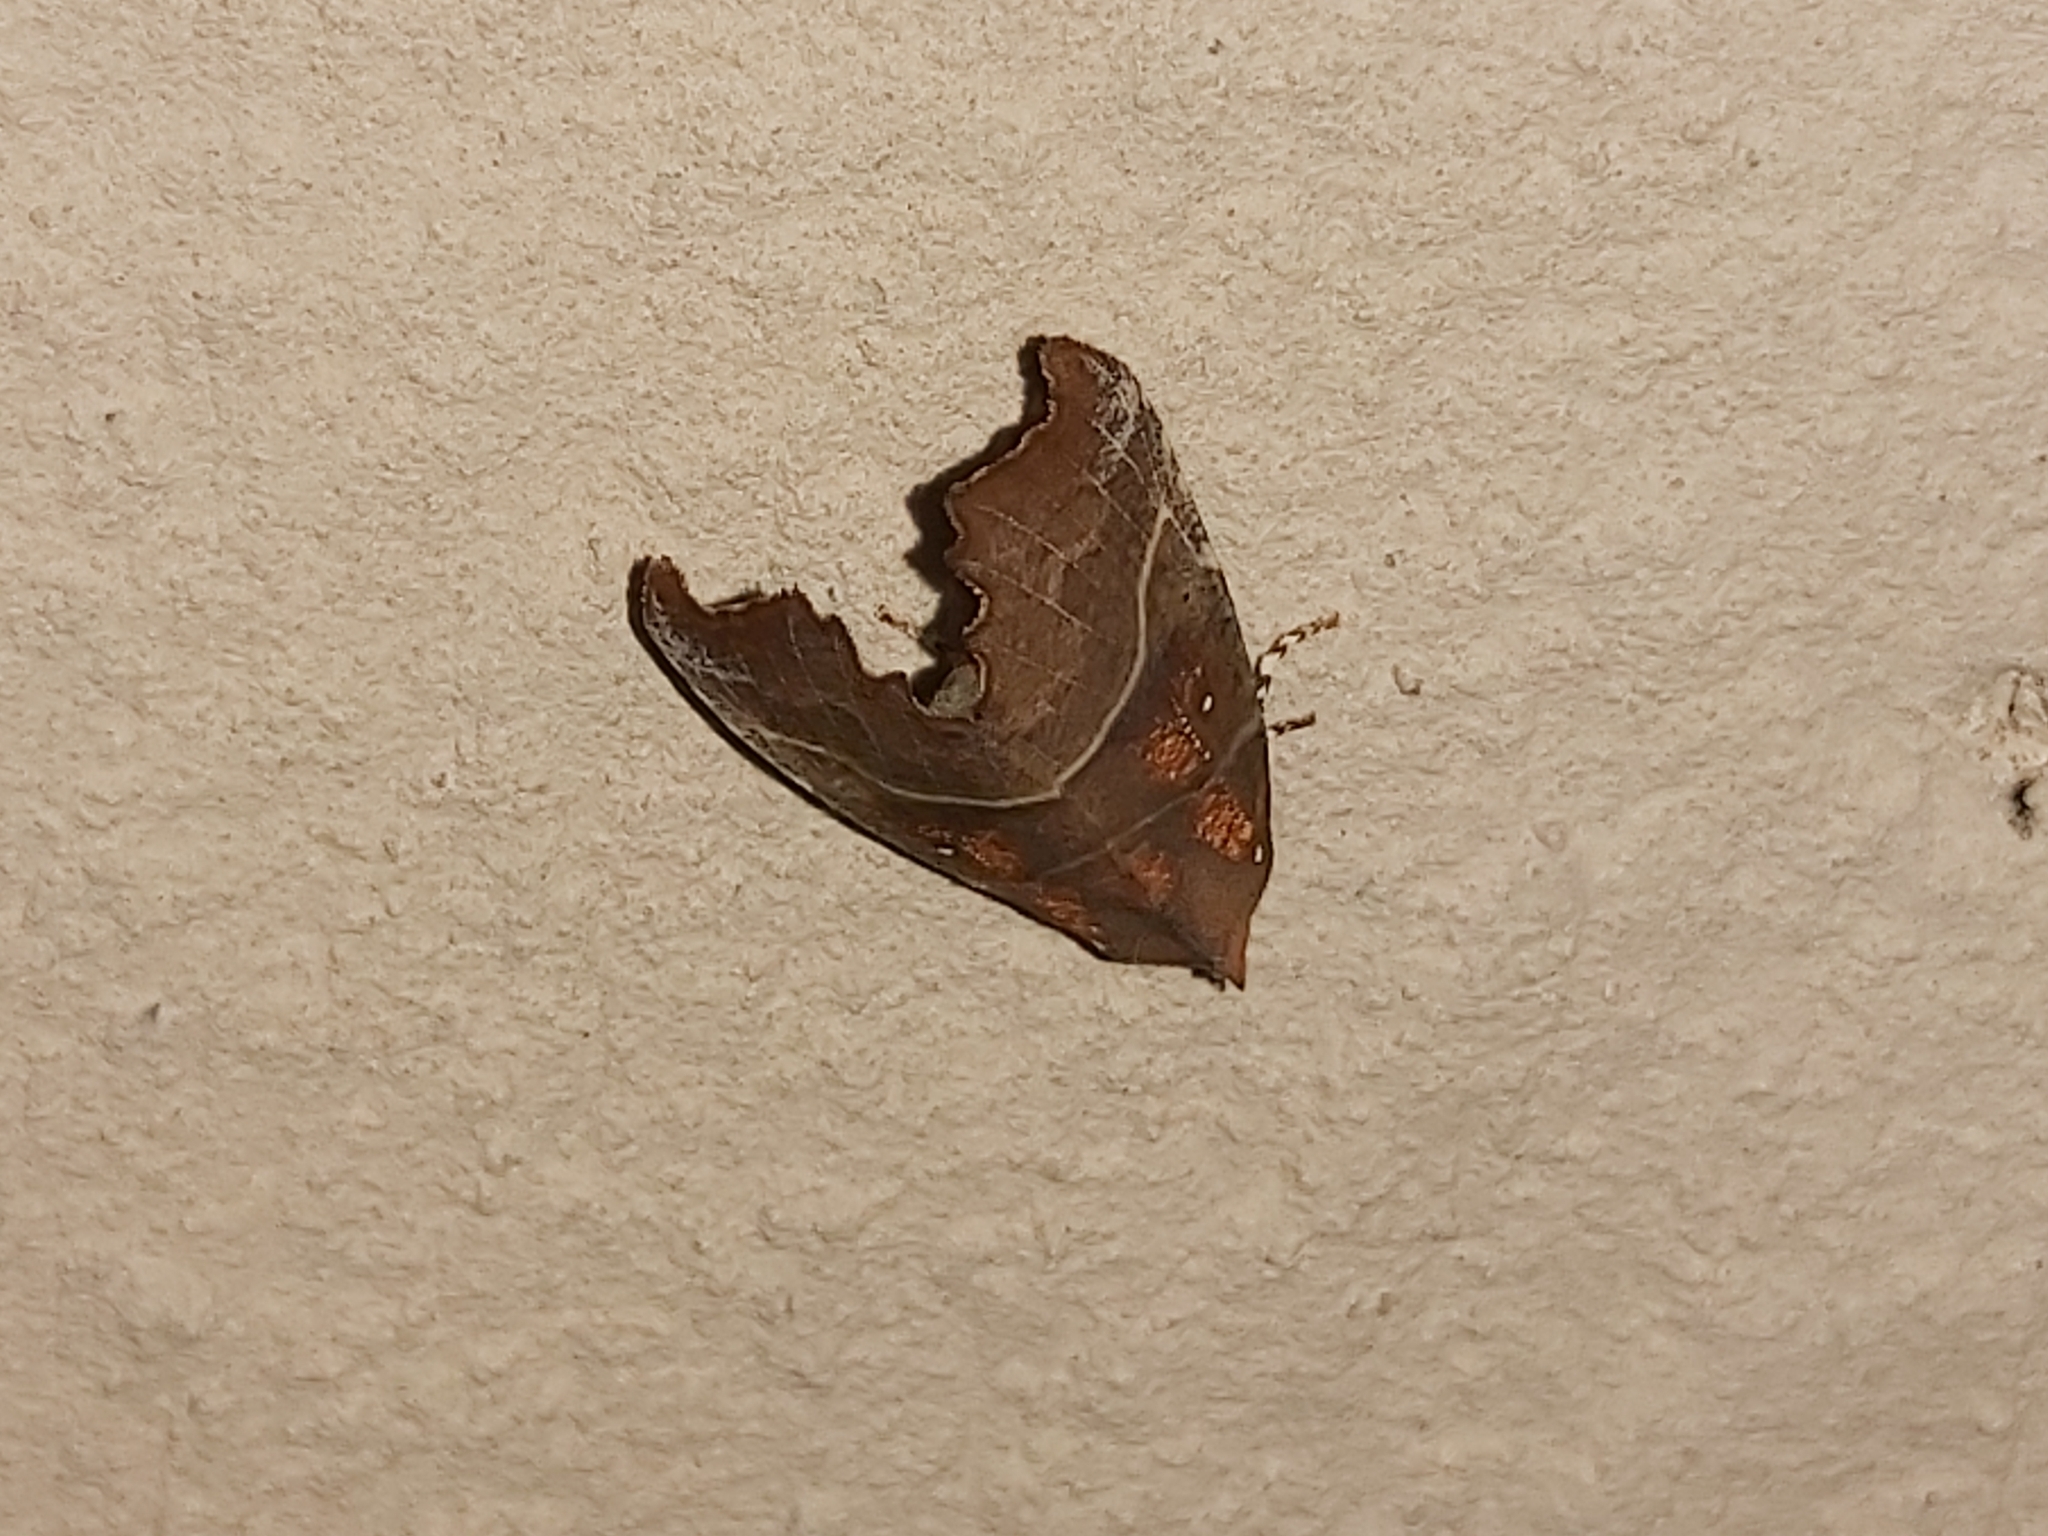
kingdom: Animalia
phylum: Arthropoda
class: Insecta
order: Lepidoptera
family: Erebidae
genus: Scoliopteryx
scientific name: Scoliopteryx libatrix
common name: Herald
